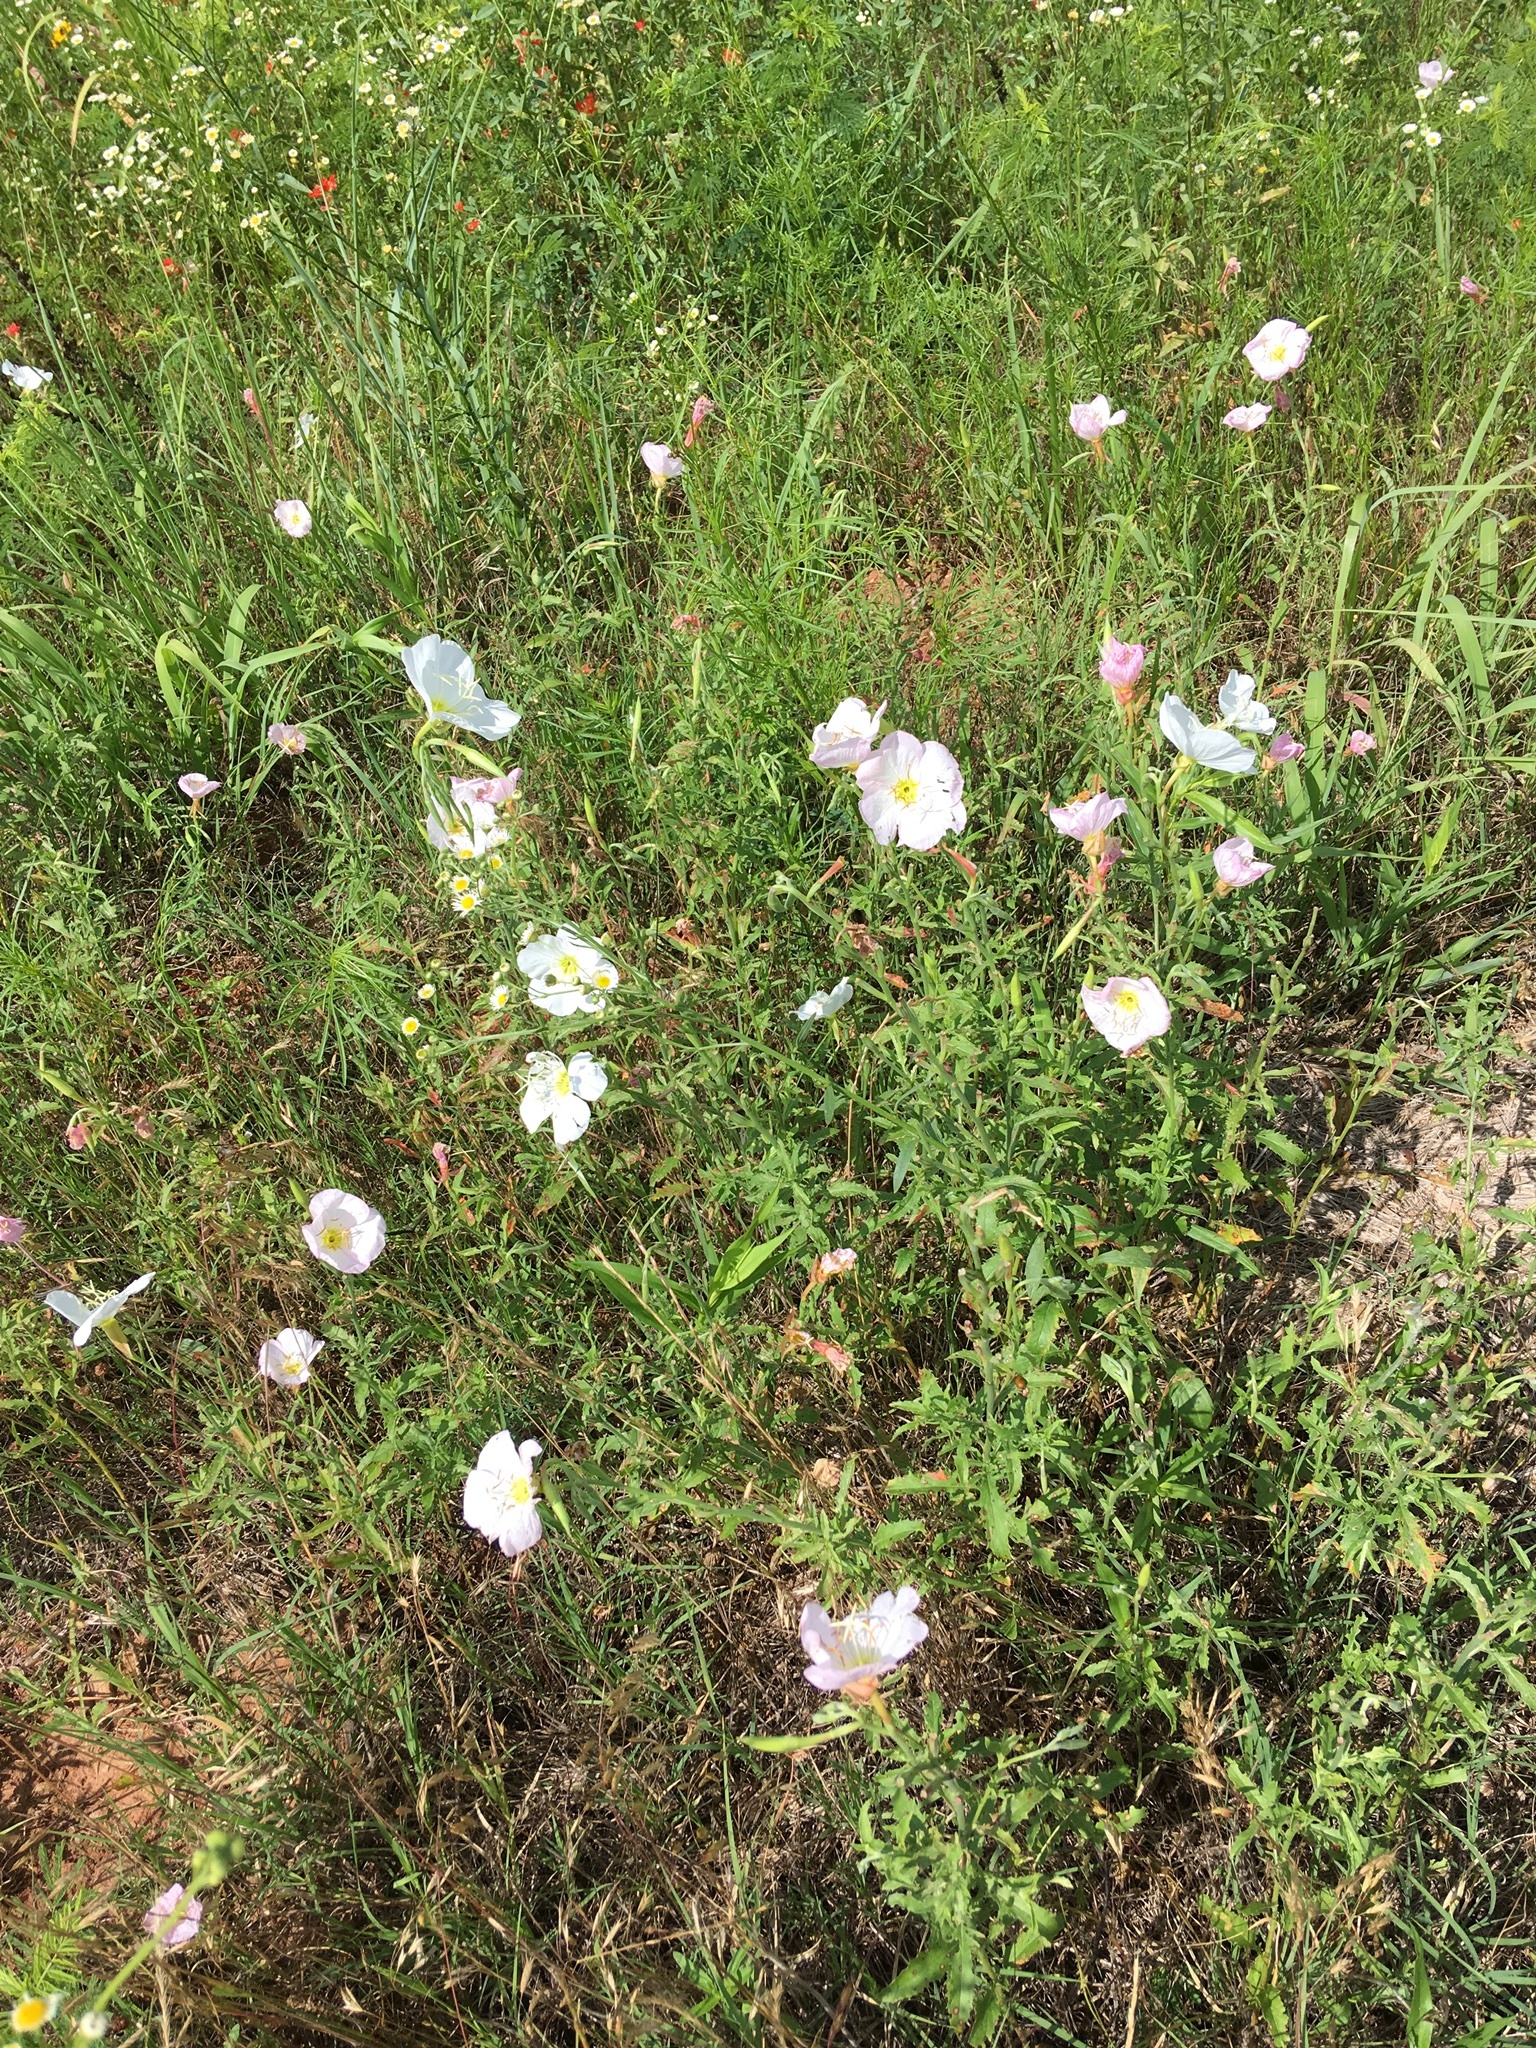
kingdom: Plantae
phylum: Tracheophyta
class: Magnoliopsida
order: Myrtales
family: Onagraceae
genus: Oenothera
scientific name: Oenothera speciosa
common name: White evening-primrose
